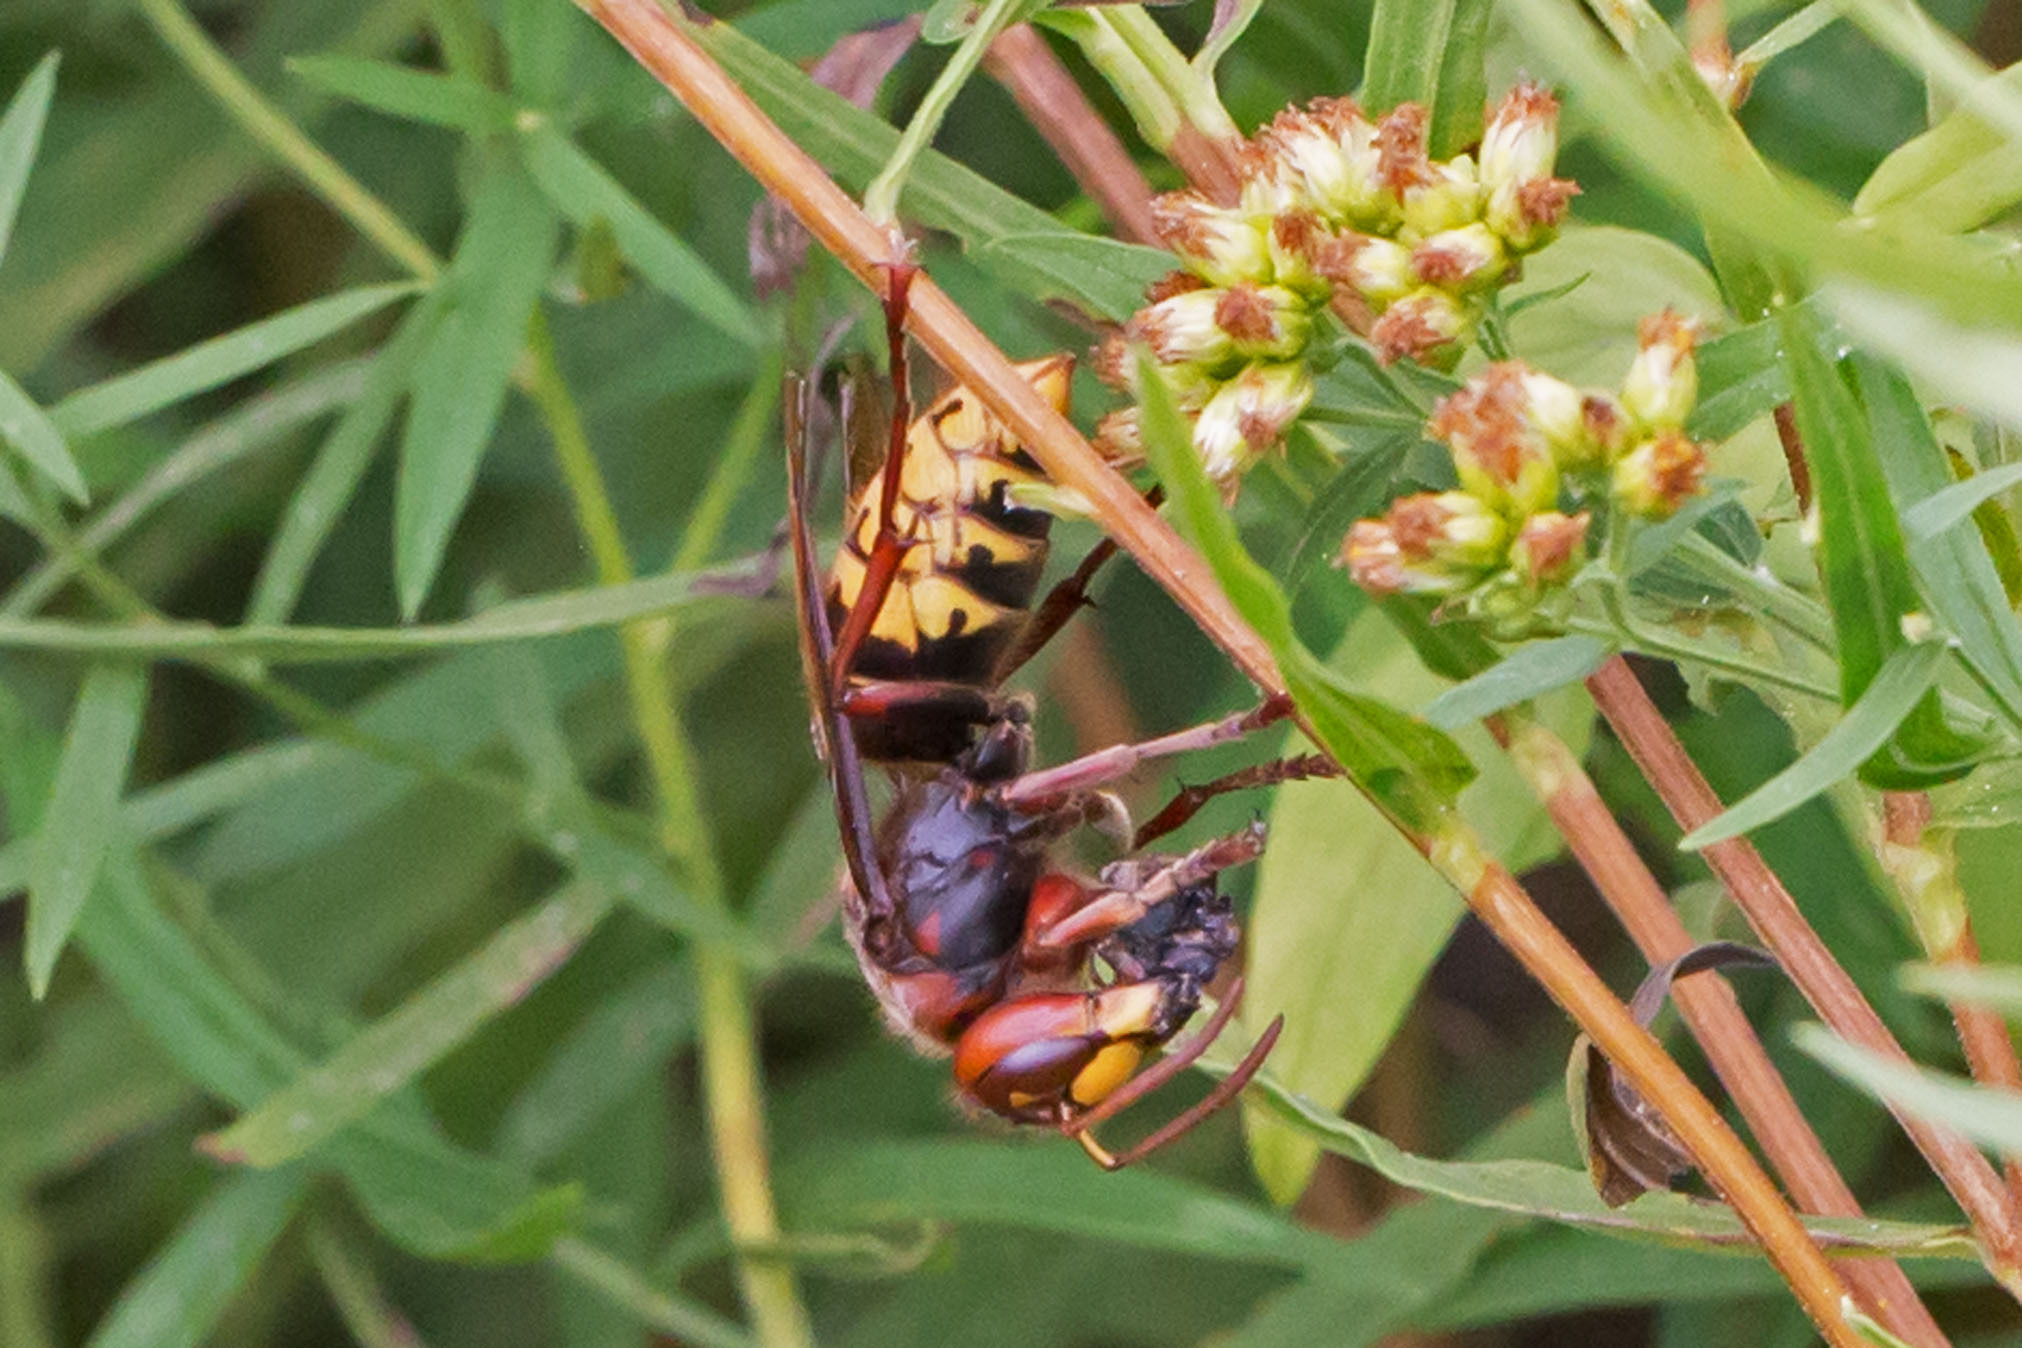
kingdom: Animalia
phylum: Arthropoda
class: Insecta
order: Hymenoptera
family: Vespidae
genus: Vespa
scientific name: Vespa crabro
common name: Hornet
